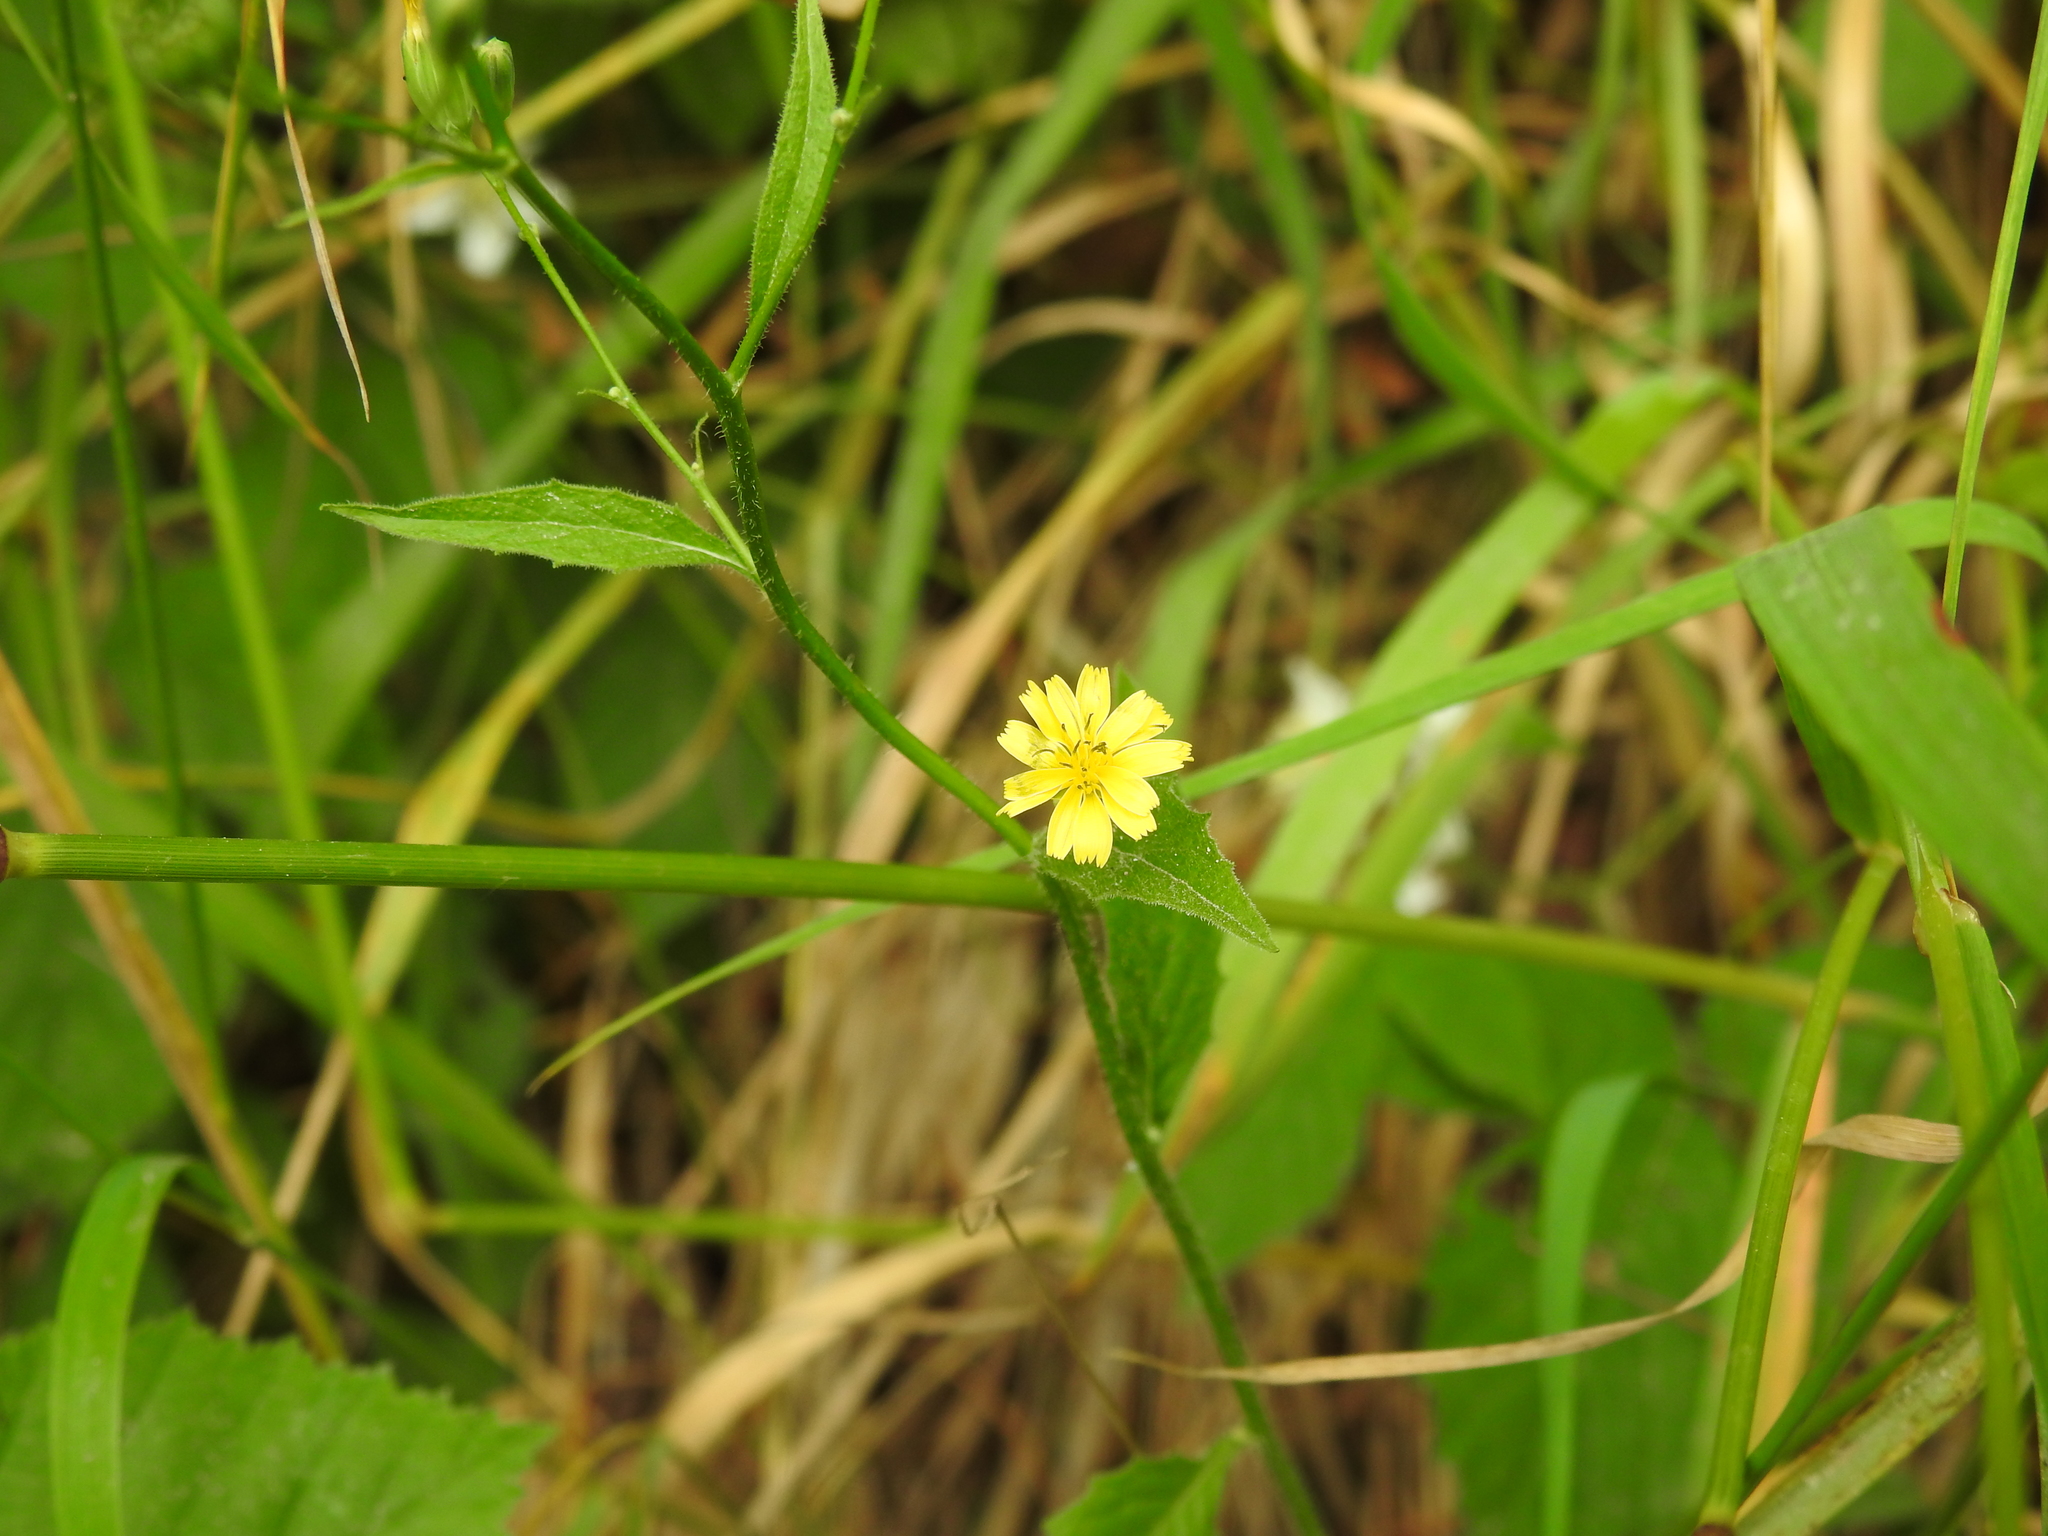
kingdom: Plantae
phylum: Tracheophyta
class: Magnoliopsida
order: Asterales
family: Asteraceae
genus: Lapsana
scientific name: Lapsana communis
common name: Nipplewort
